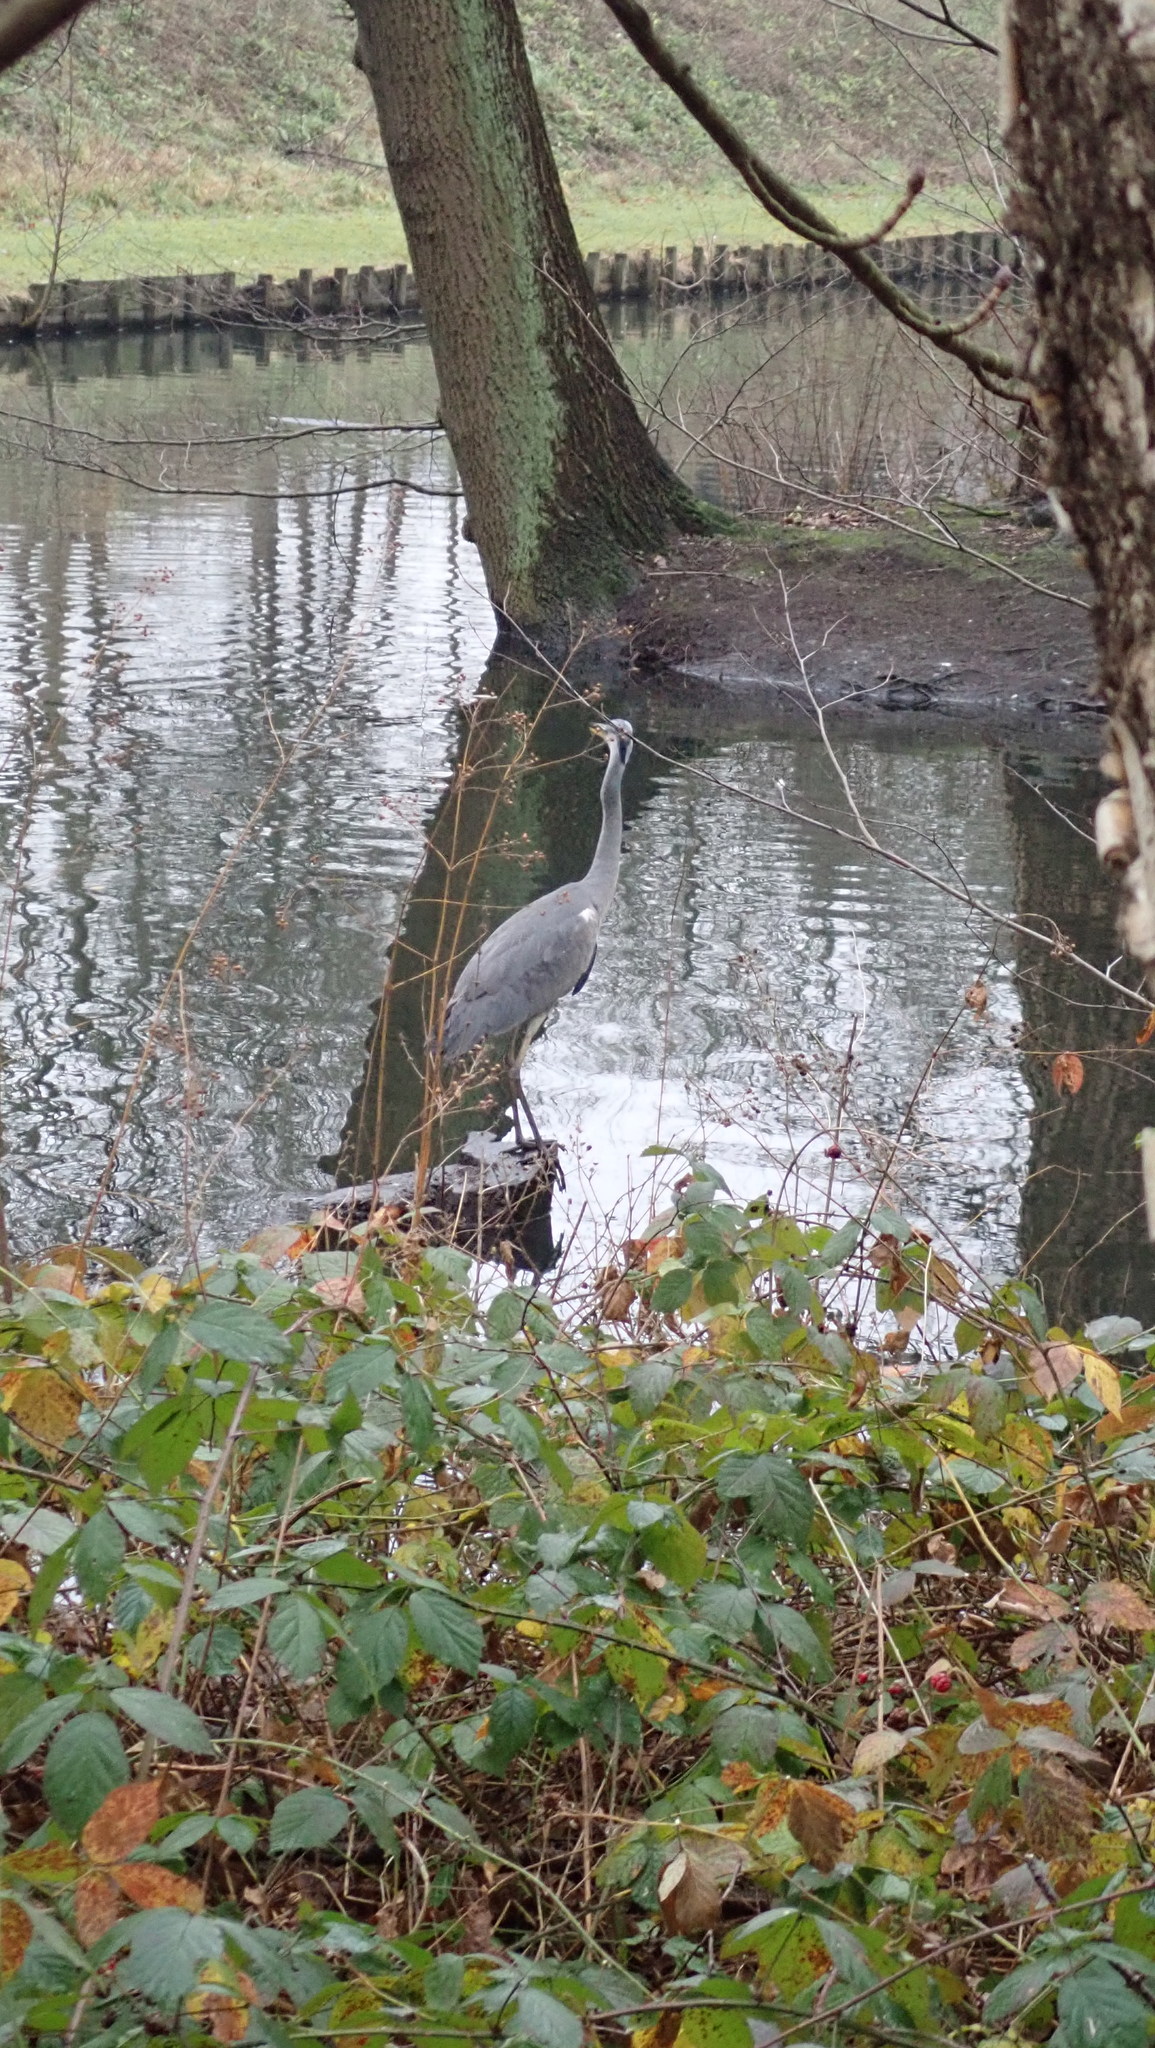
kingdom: Animalia
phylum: Chordata
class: Aves
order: Pelecaniformes
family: Ardeidae
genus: Ardea
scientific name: Ardea cinerea
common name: Grey heron
